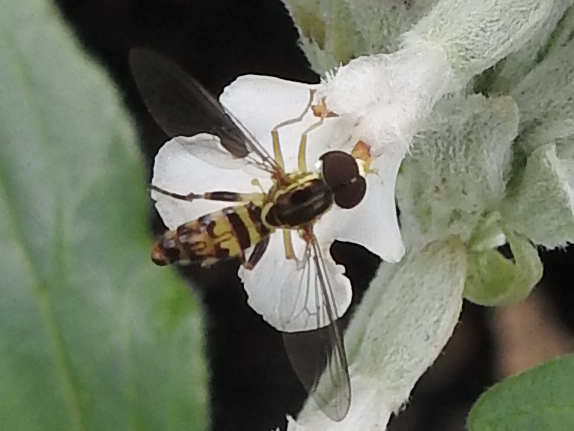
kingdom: Animalia
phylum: Arthropoda
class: Insecta
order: Diptera
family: Syrphidae
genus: Toxomerus
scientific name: Toxomerus geminatus
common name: Eastern calligrapher
